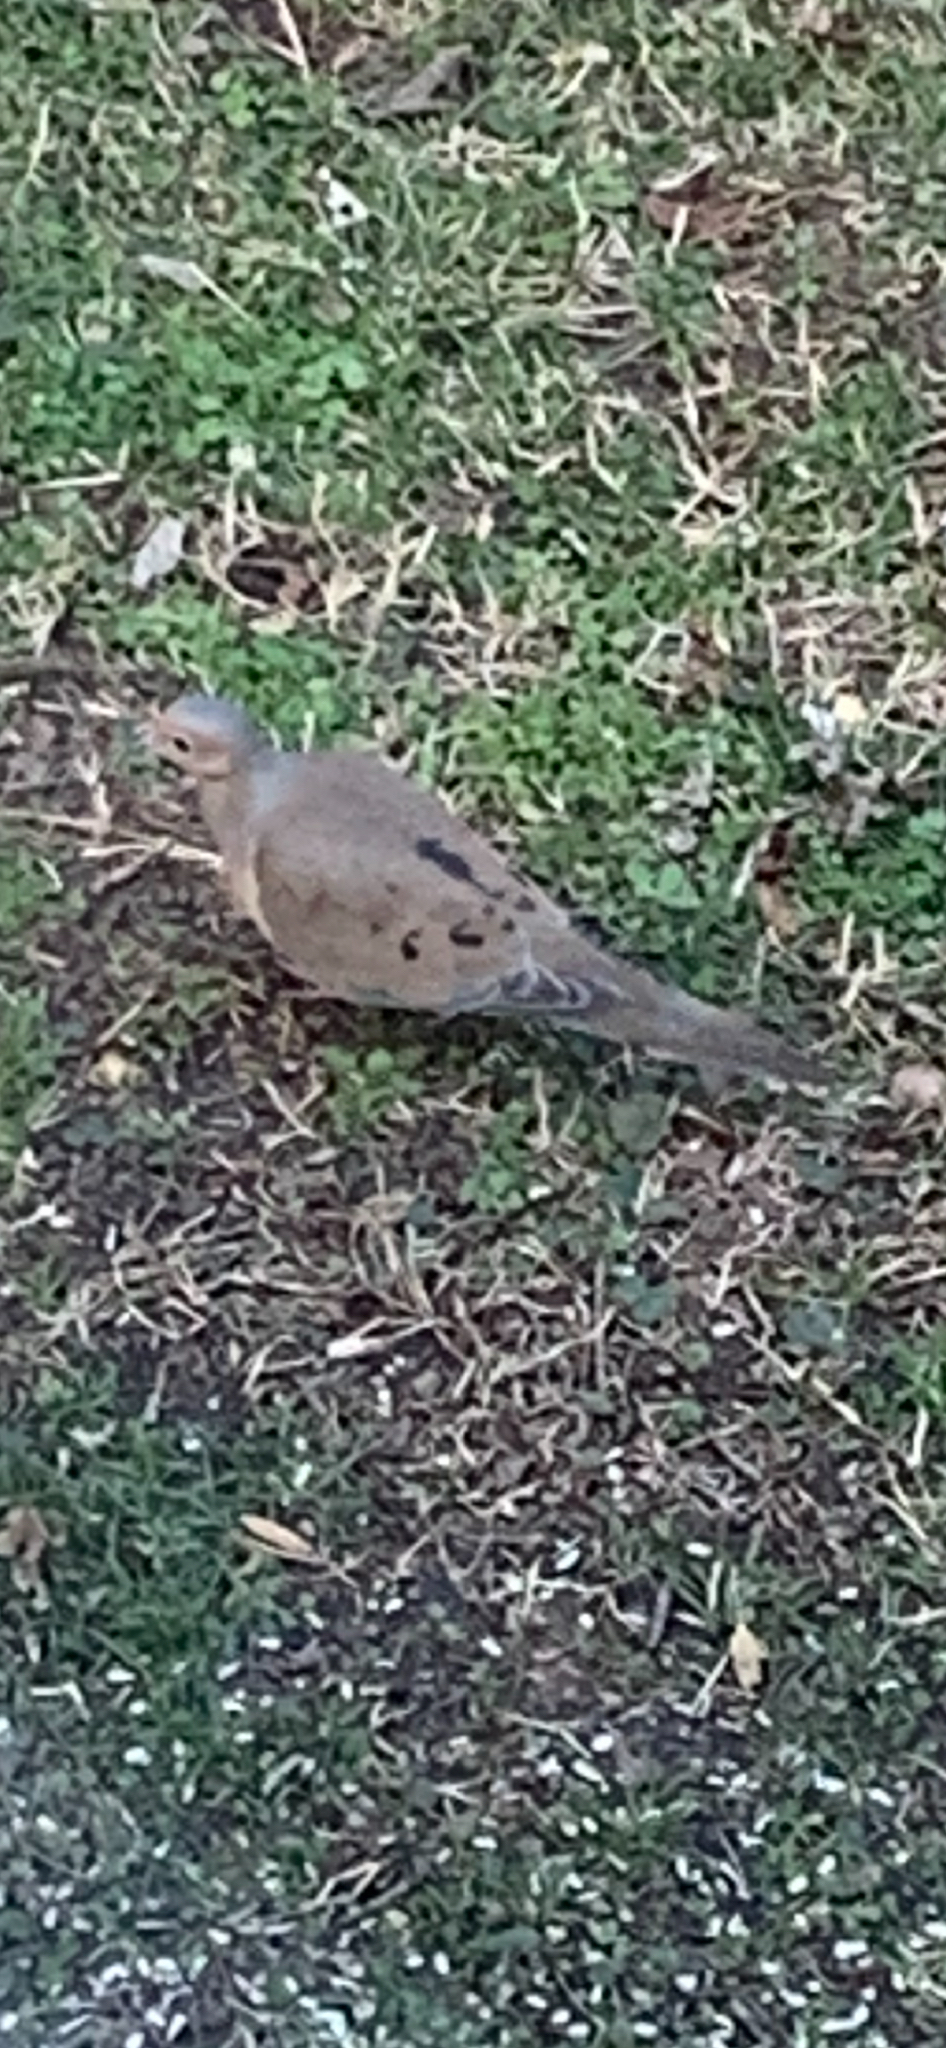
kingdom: Animalia
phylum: Chordata
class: Aves
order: Columbiformes
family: Columbidae
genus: Zenaida
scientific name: Zenaida macroura
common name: Mourning dove
